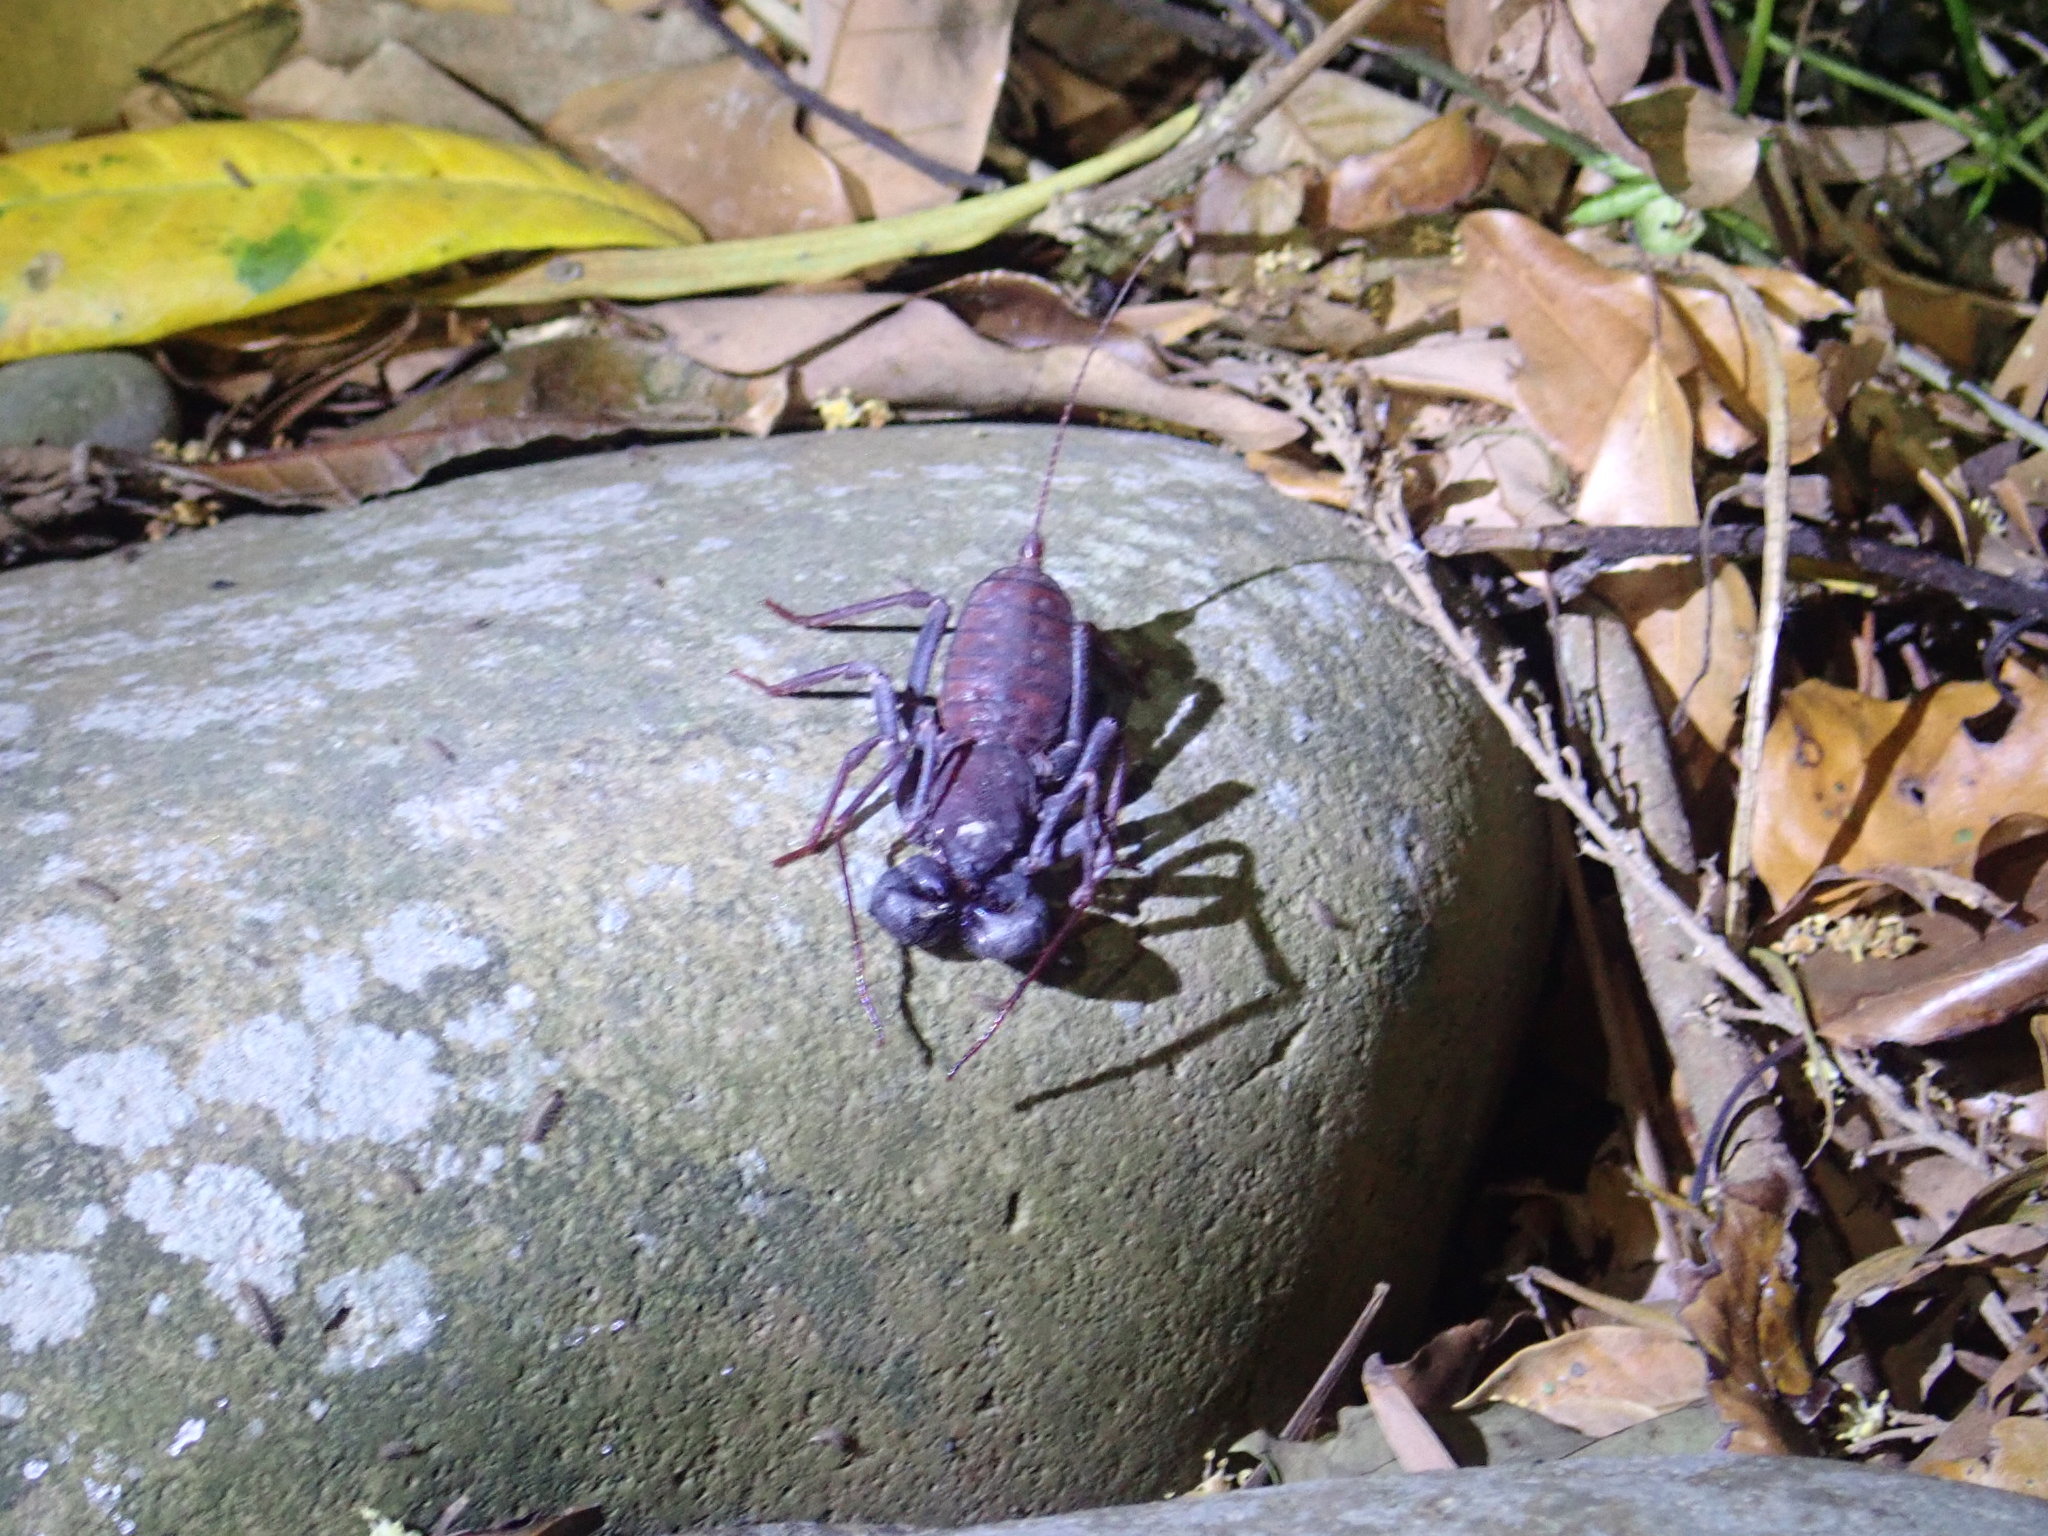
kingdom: Animalia
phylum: Arthropoda
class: Arachnida
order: Uropygi
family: Thelyphonidae
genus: Typopeltis
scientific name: Typopeltis crucifer
